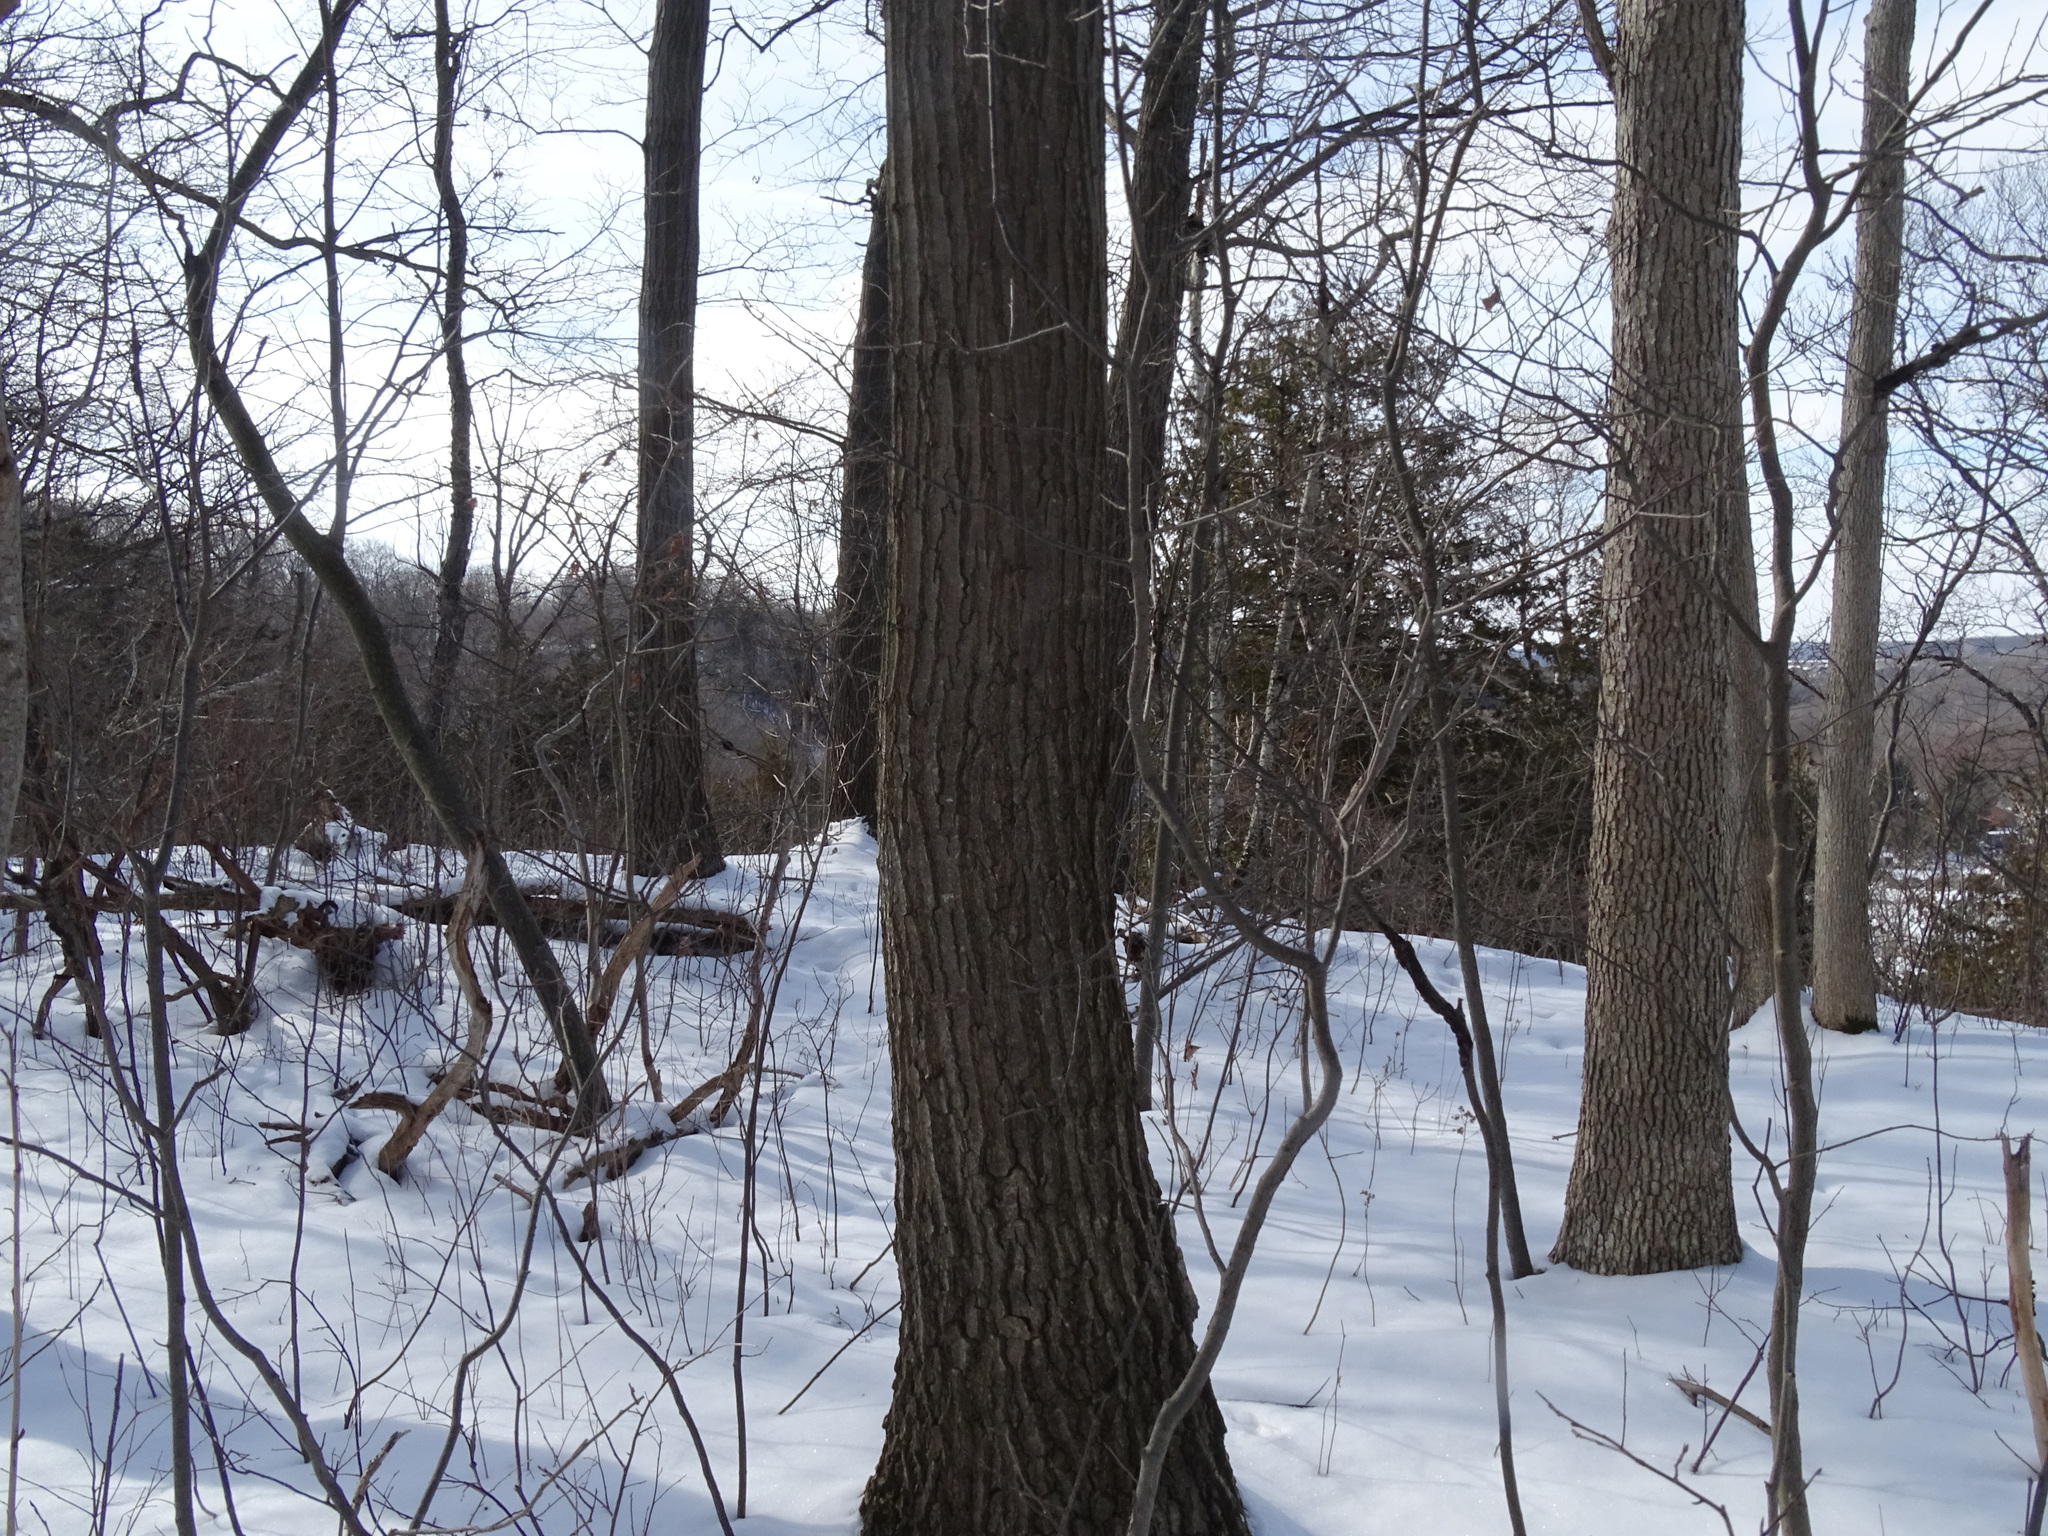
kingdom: Plantae
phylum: Tracheophyta
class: Magnoliopsida
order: Fagales
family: Fagaceae
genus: Quercus
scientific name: Quercus rubra
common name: Red oak
